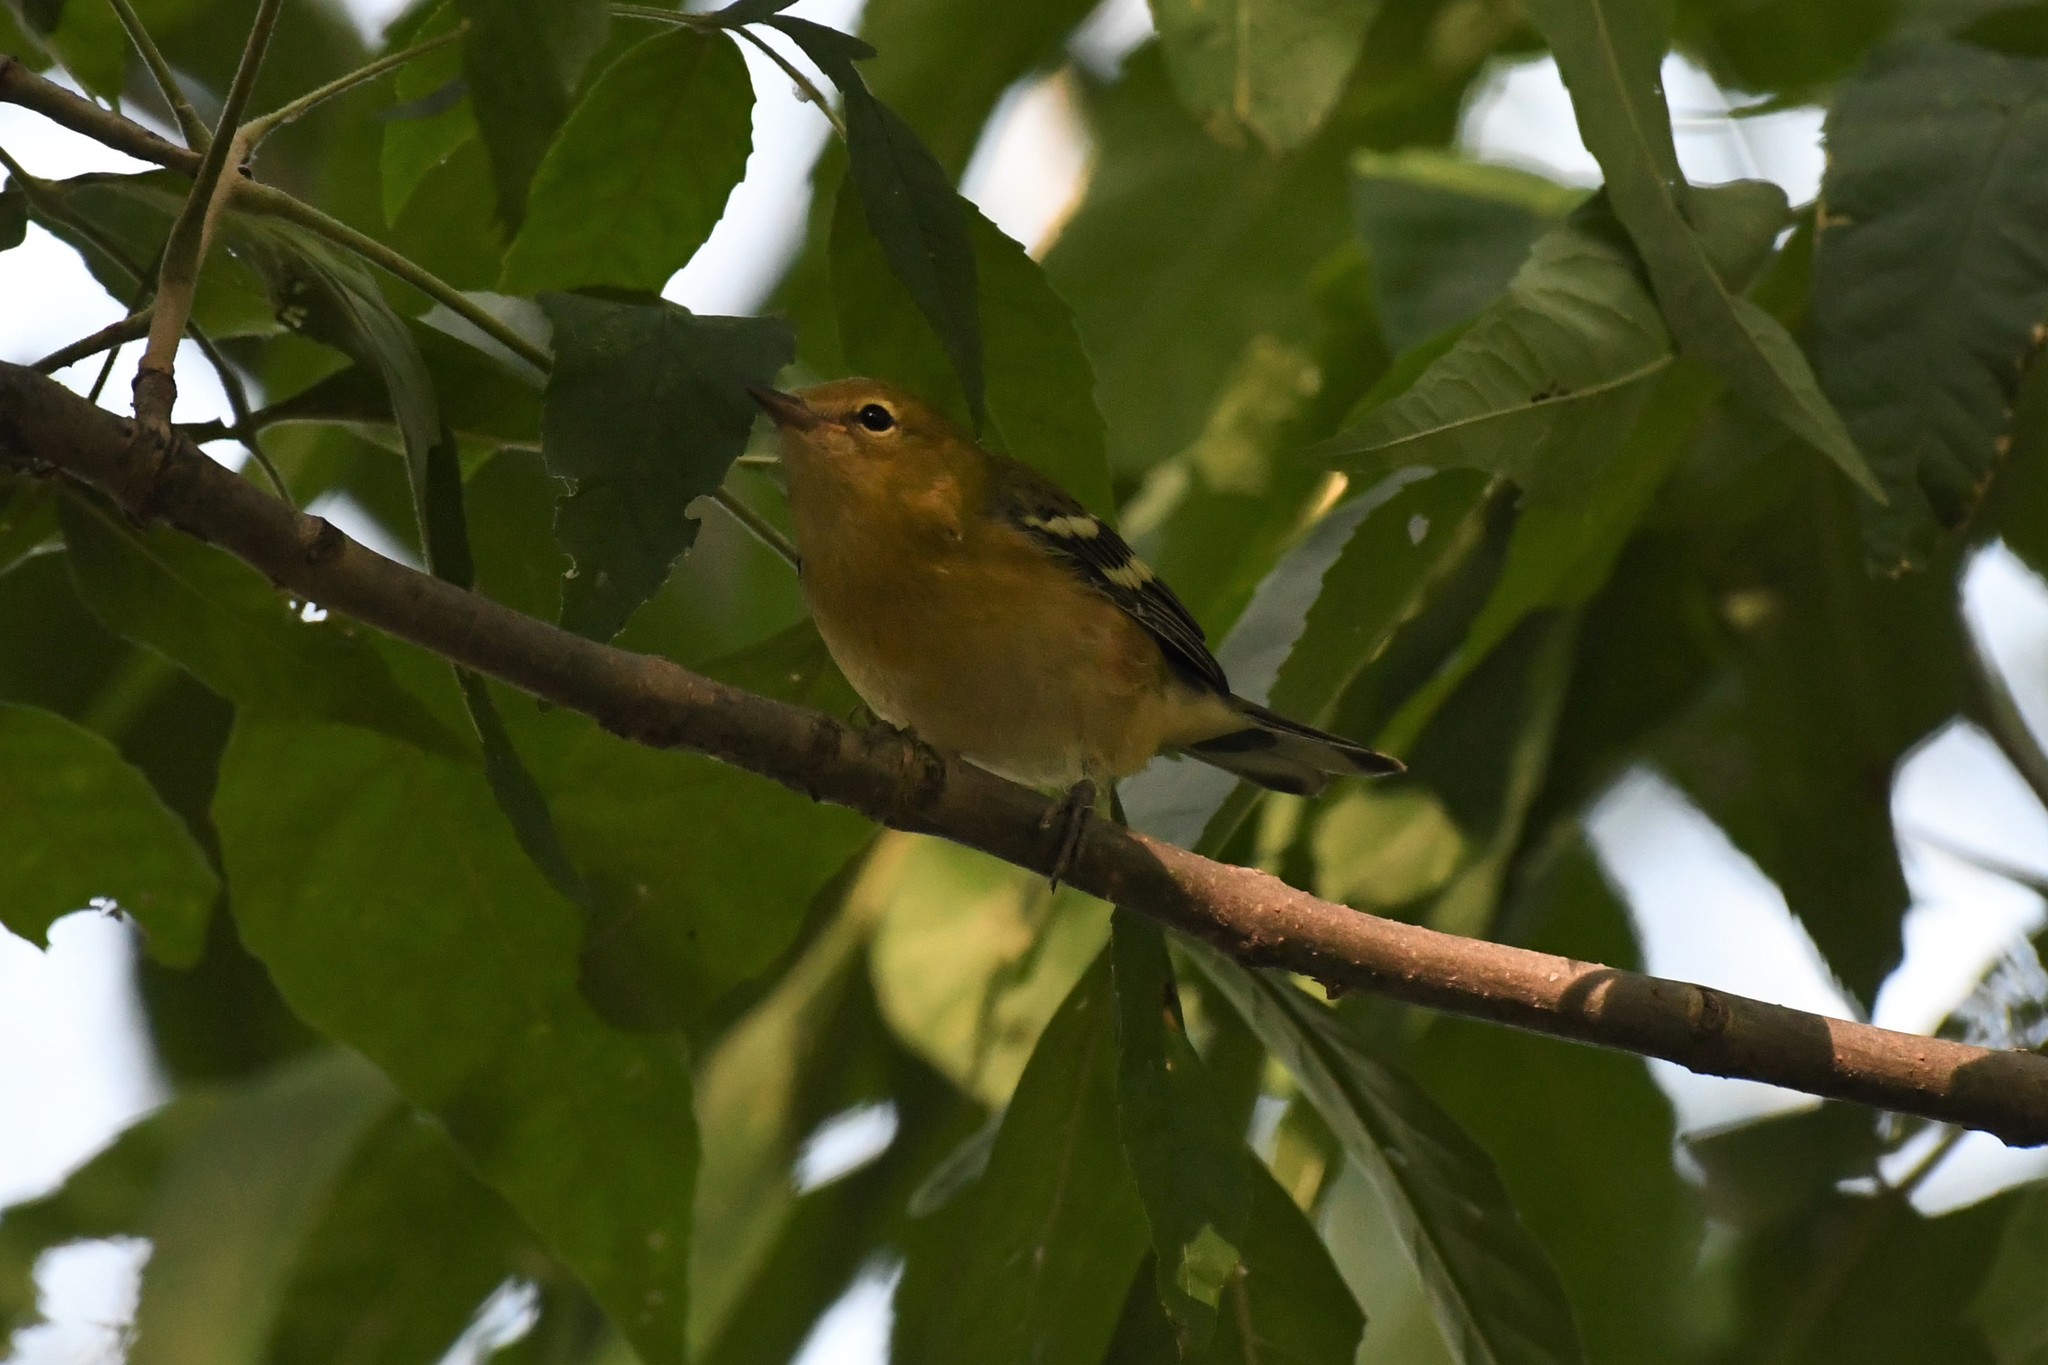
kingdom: Animalia
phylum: Chordata
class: Aves
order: Passeriformes
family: Parulidae
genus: Setophaga
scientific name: Setophaga castanea
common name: Bay-breasted warbler
